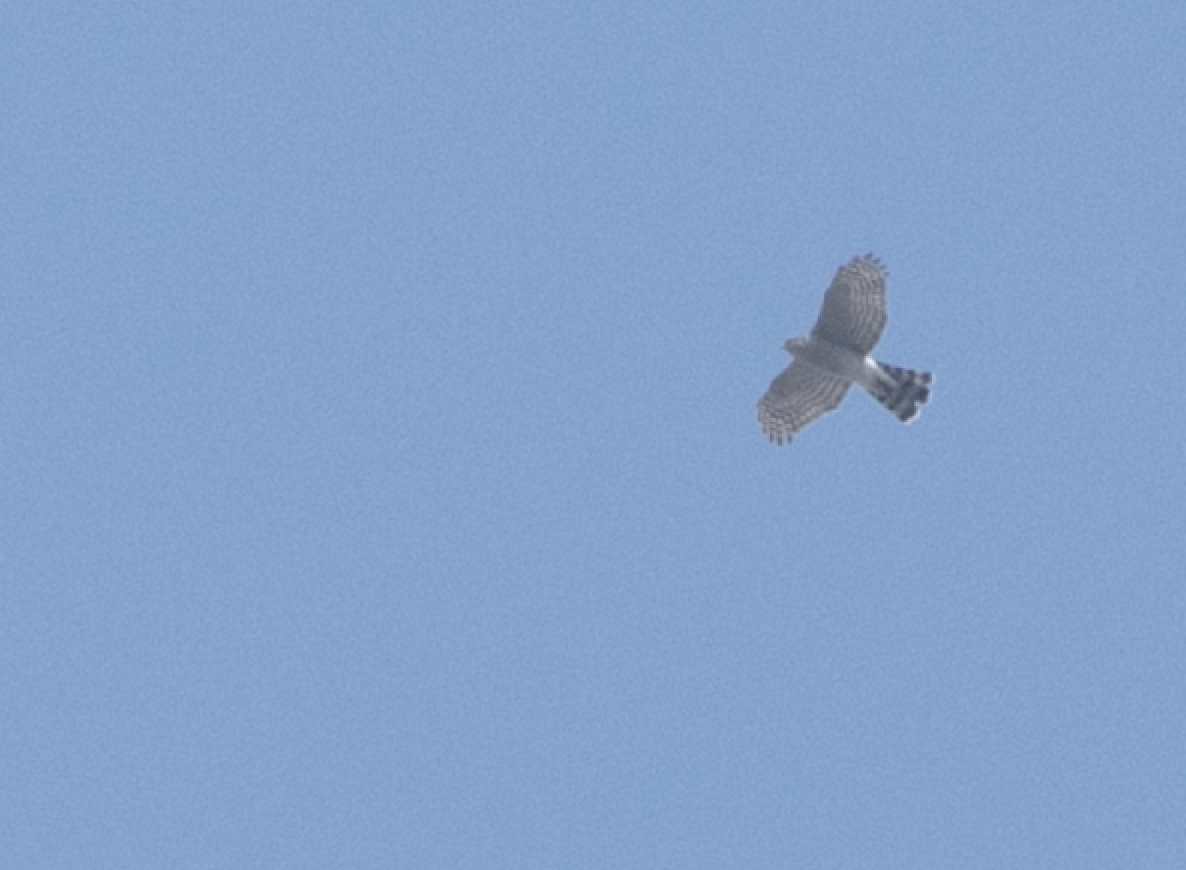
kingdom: Animalia
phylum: Chordata
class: Aves
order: Accipitriformes
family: Accipitridae
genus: Accipiter
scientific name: Accipiter nisus
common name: Eurasian sparrowhawk
